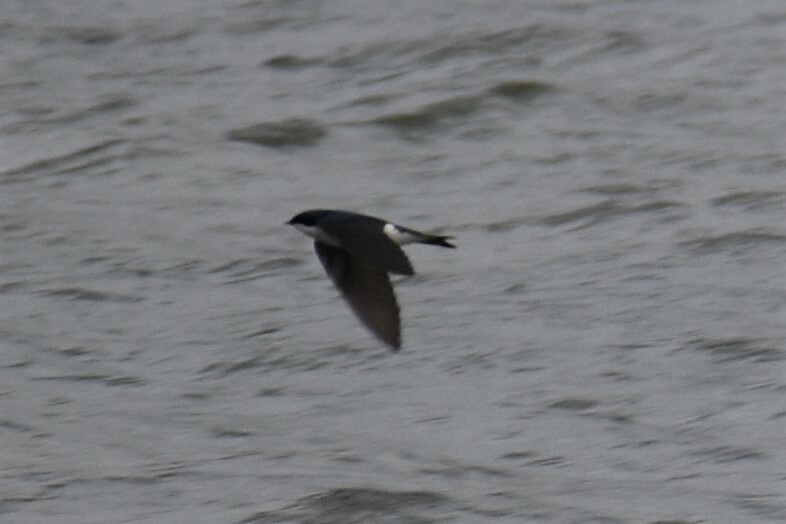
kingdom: Animalia
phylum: Chordata
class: Aves
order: Passeriformes
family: Hirundinidae
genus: Tachycineta
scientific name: Tachycineta bicolor
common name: Tree swallow
